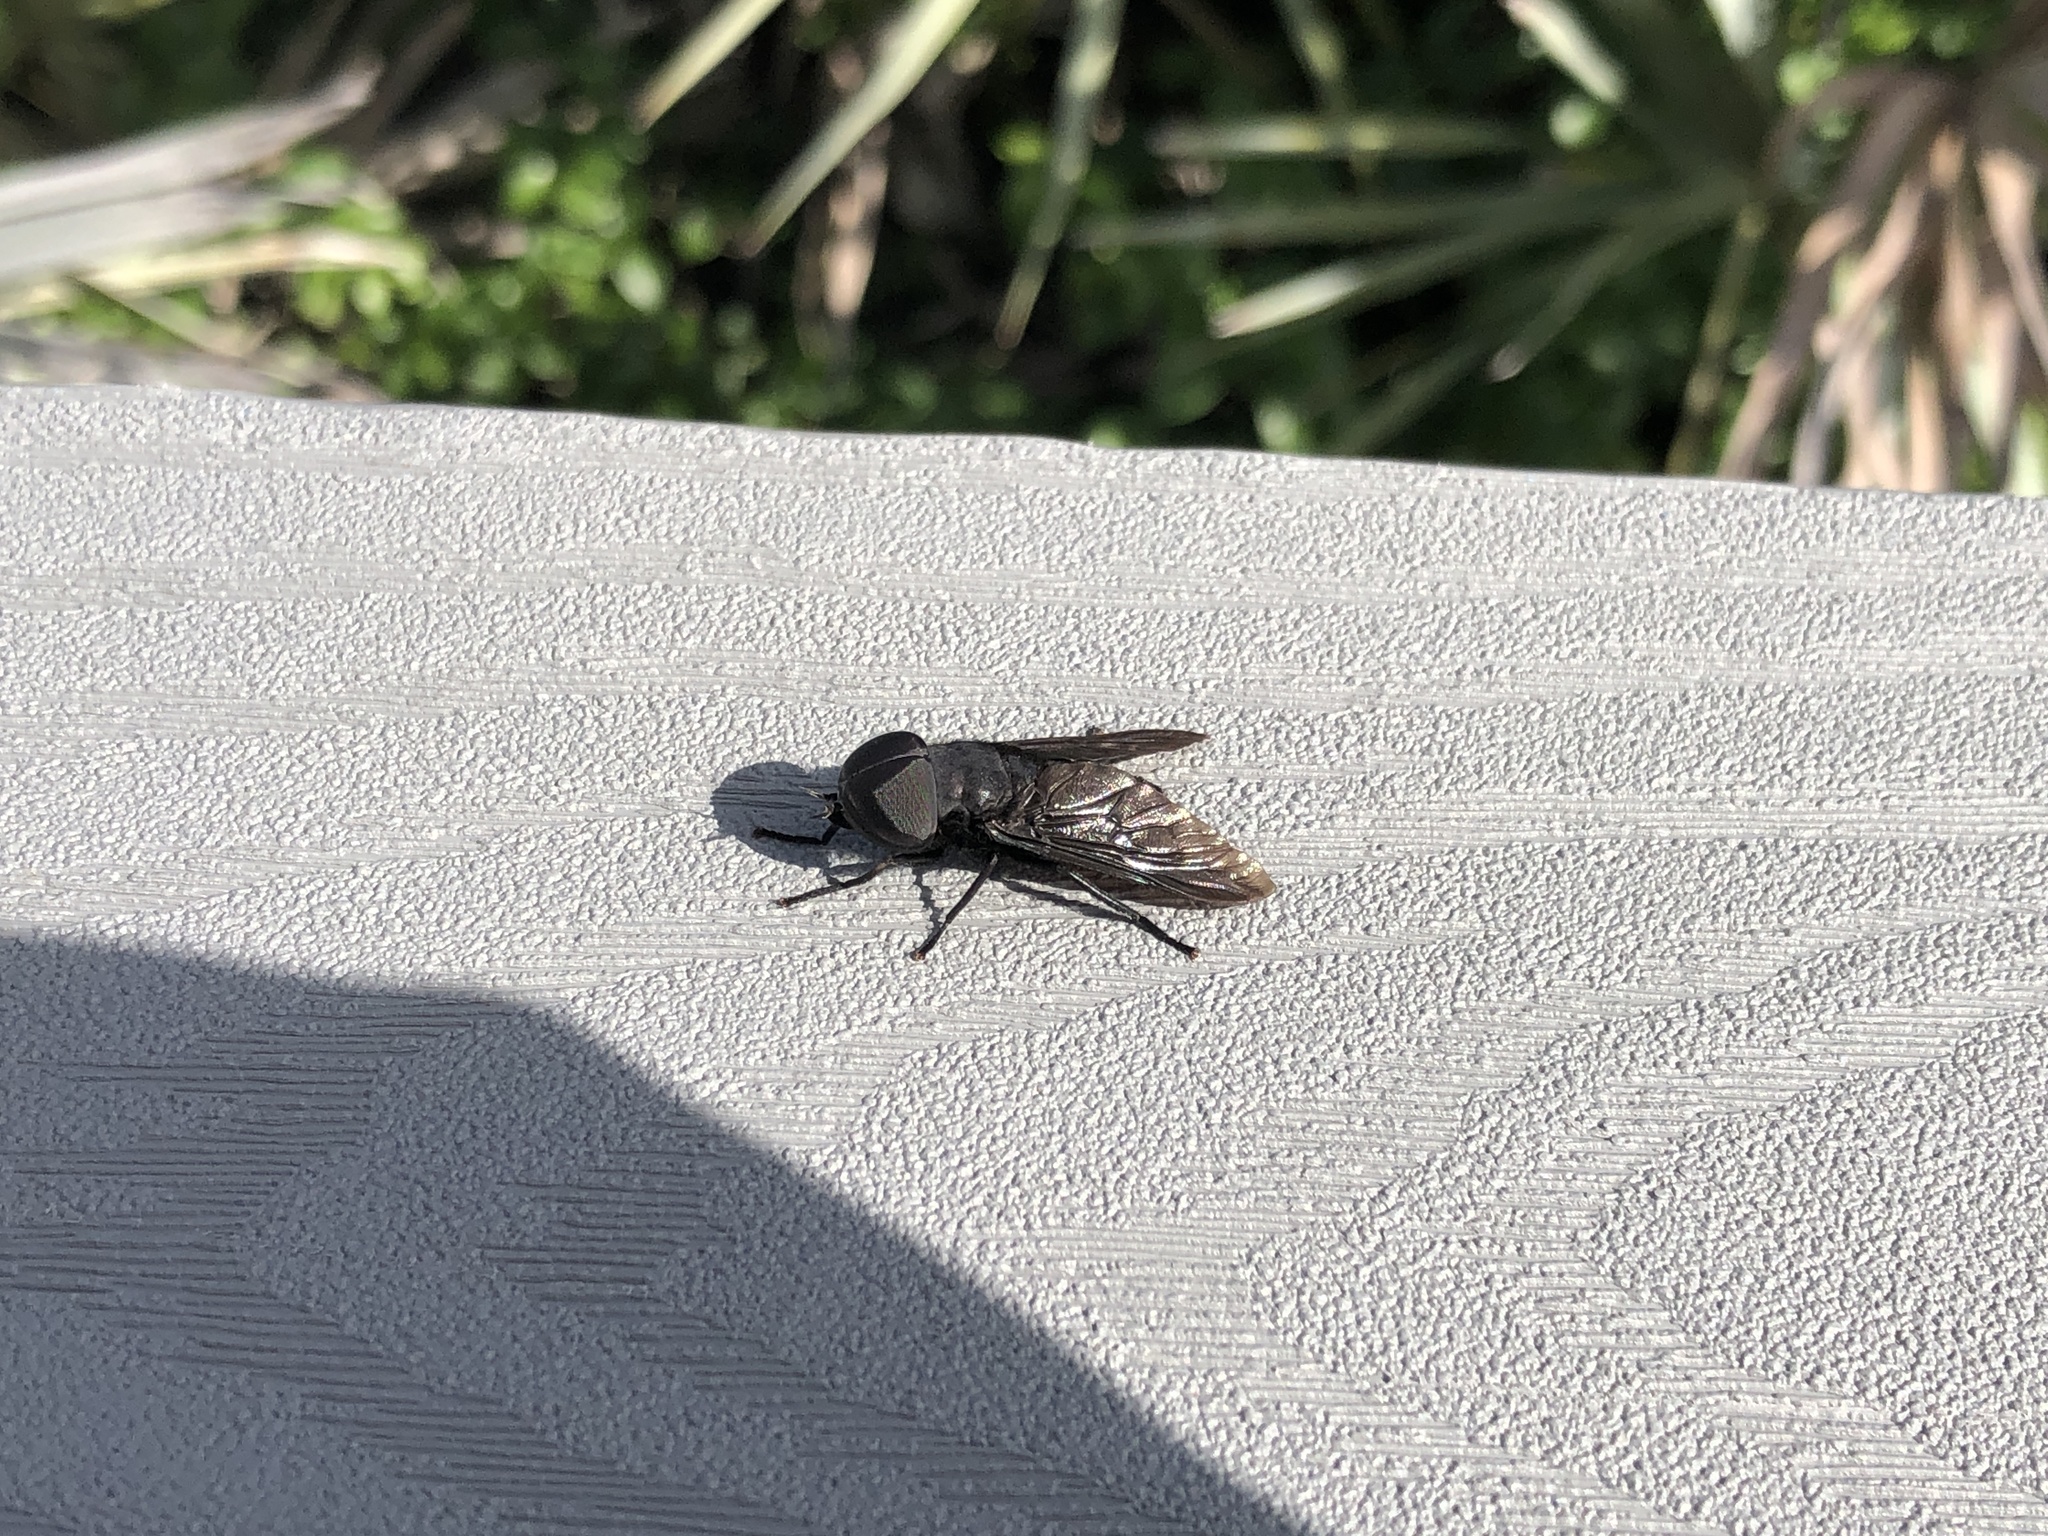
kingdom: Animalia
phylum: Arthropoda
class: Insecta
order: Diptera
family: Tabanidae
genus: Tabanus
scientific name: Tabanus atratus
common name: Black horse fly
